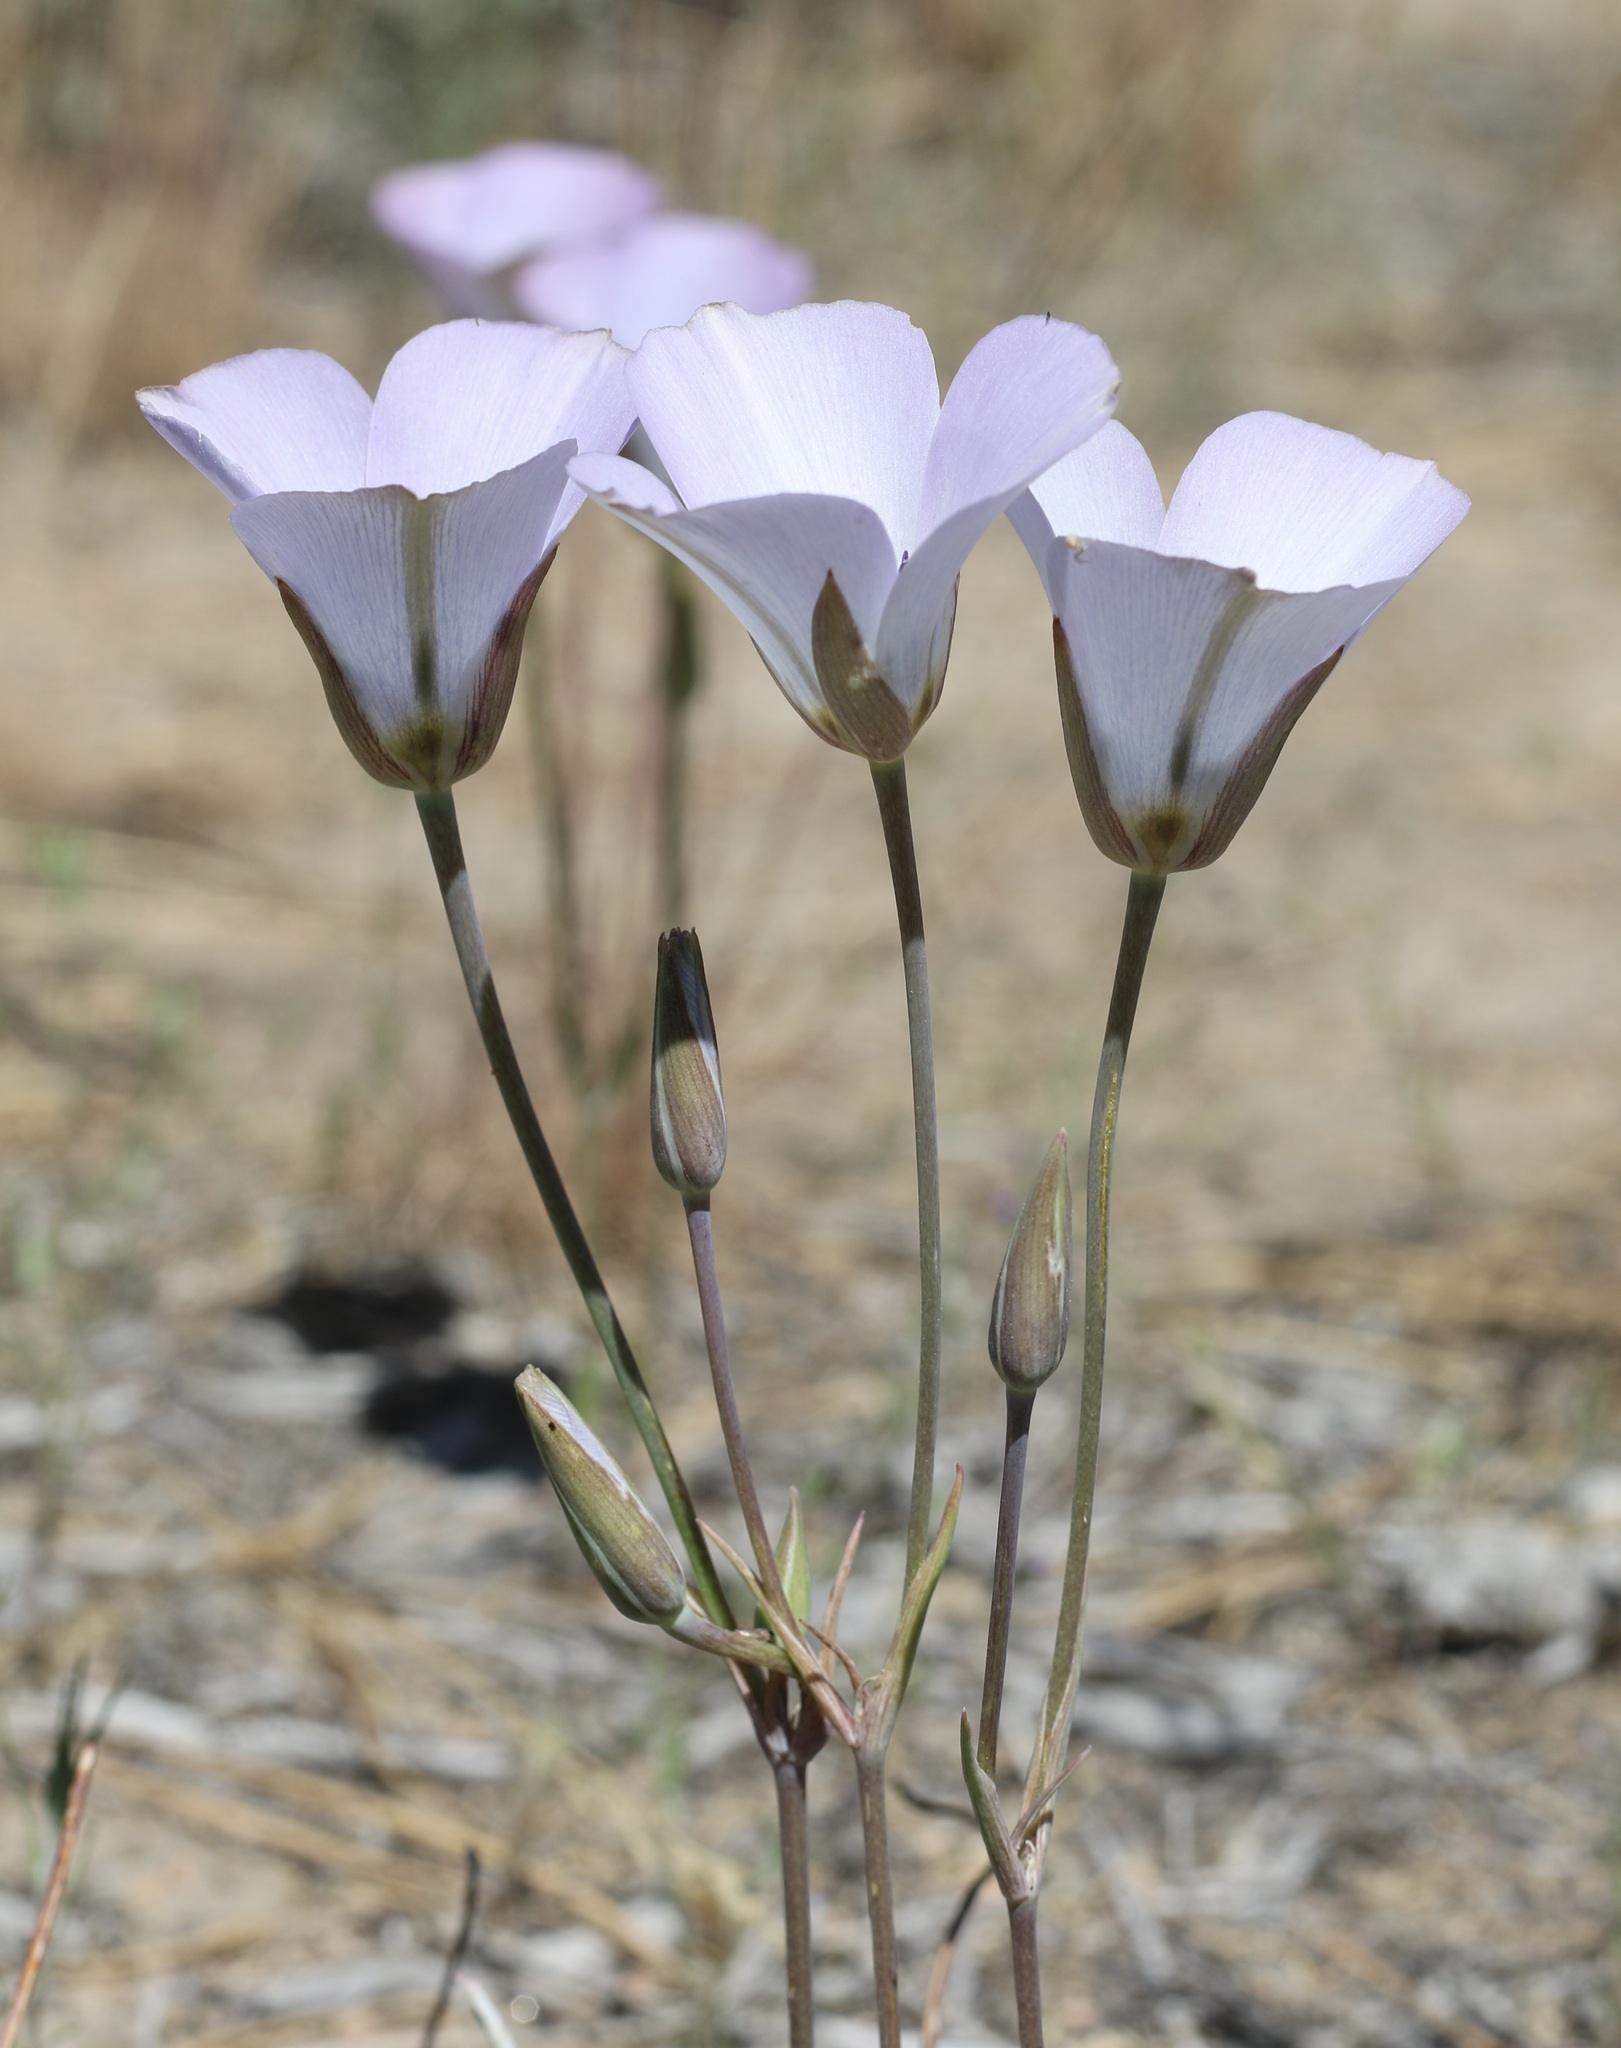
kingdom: Plantae
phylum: Tracheophyta
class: Liliopsida
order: Liliales
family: Liliaceae
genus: Calochortus
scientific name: Calochortus invenustus
